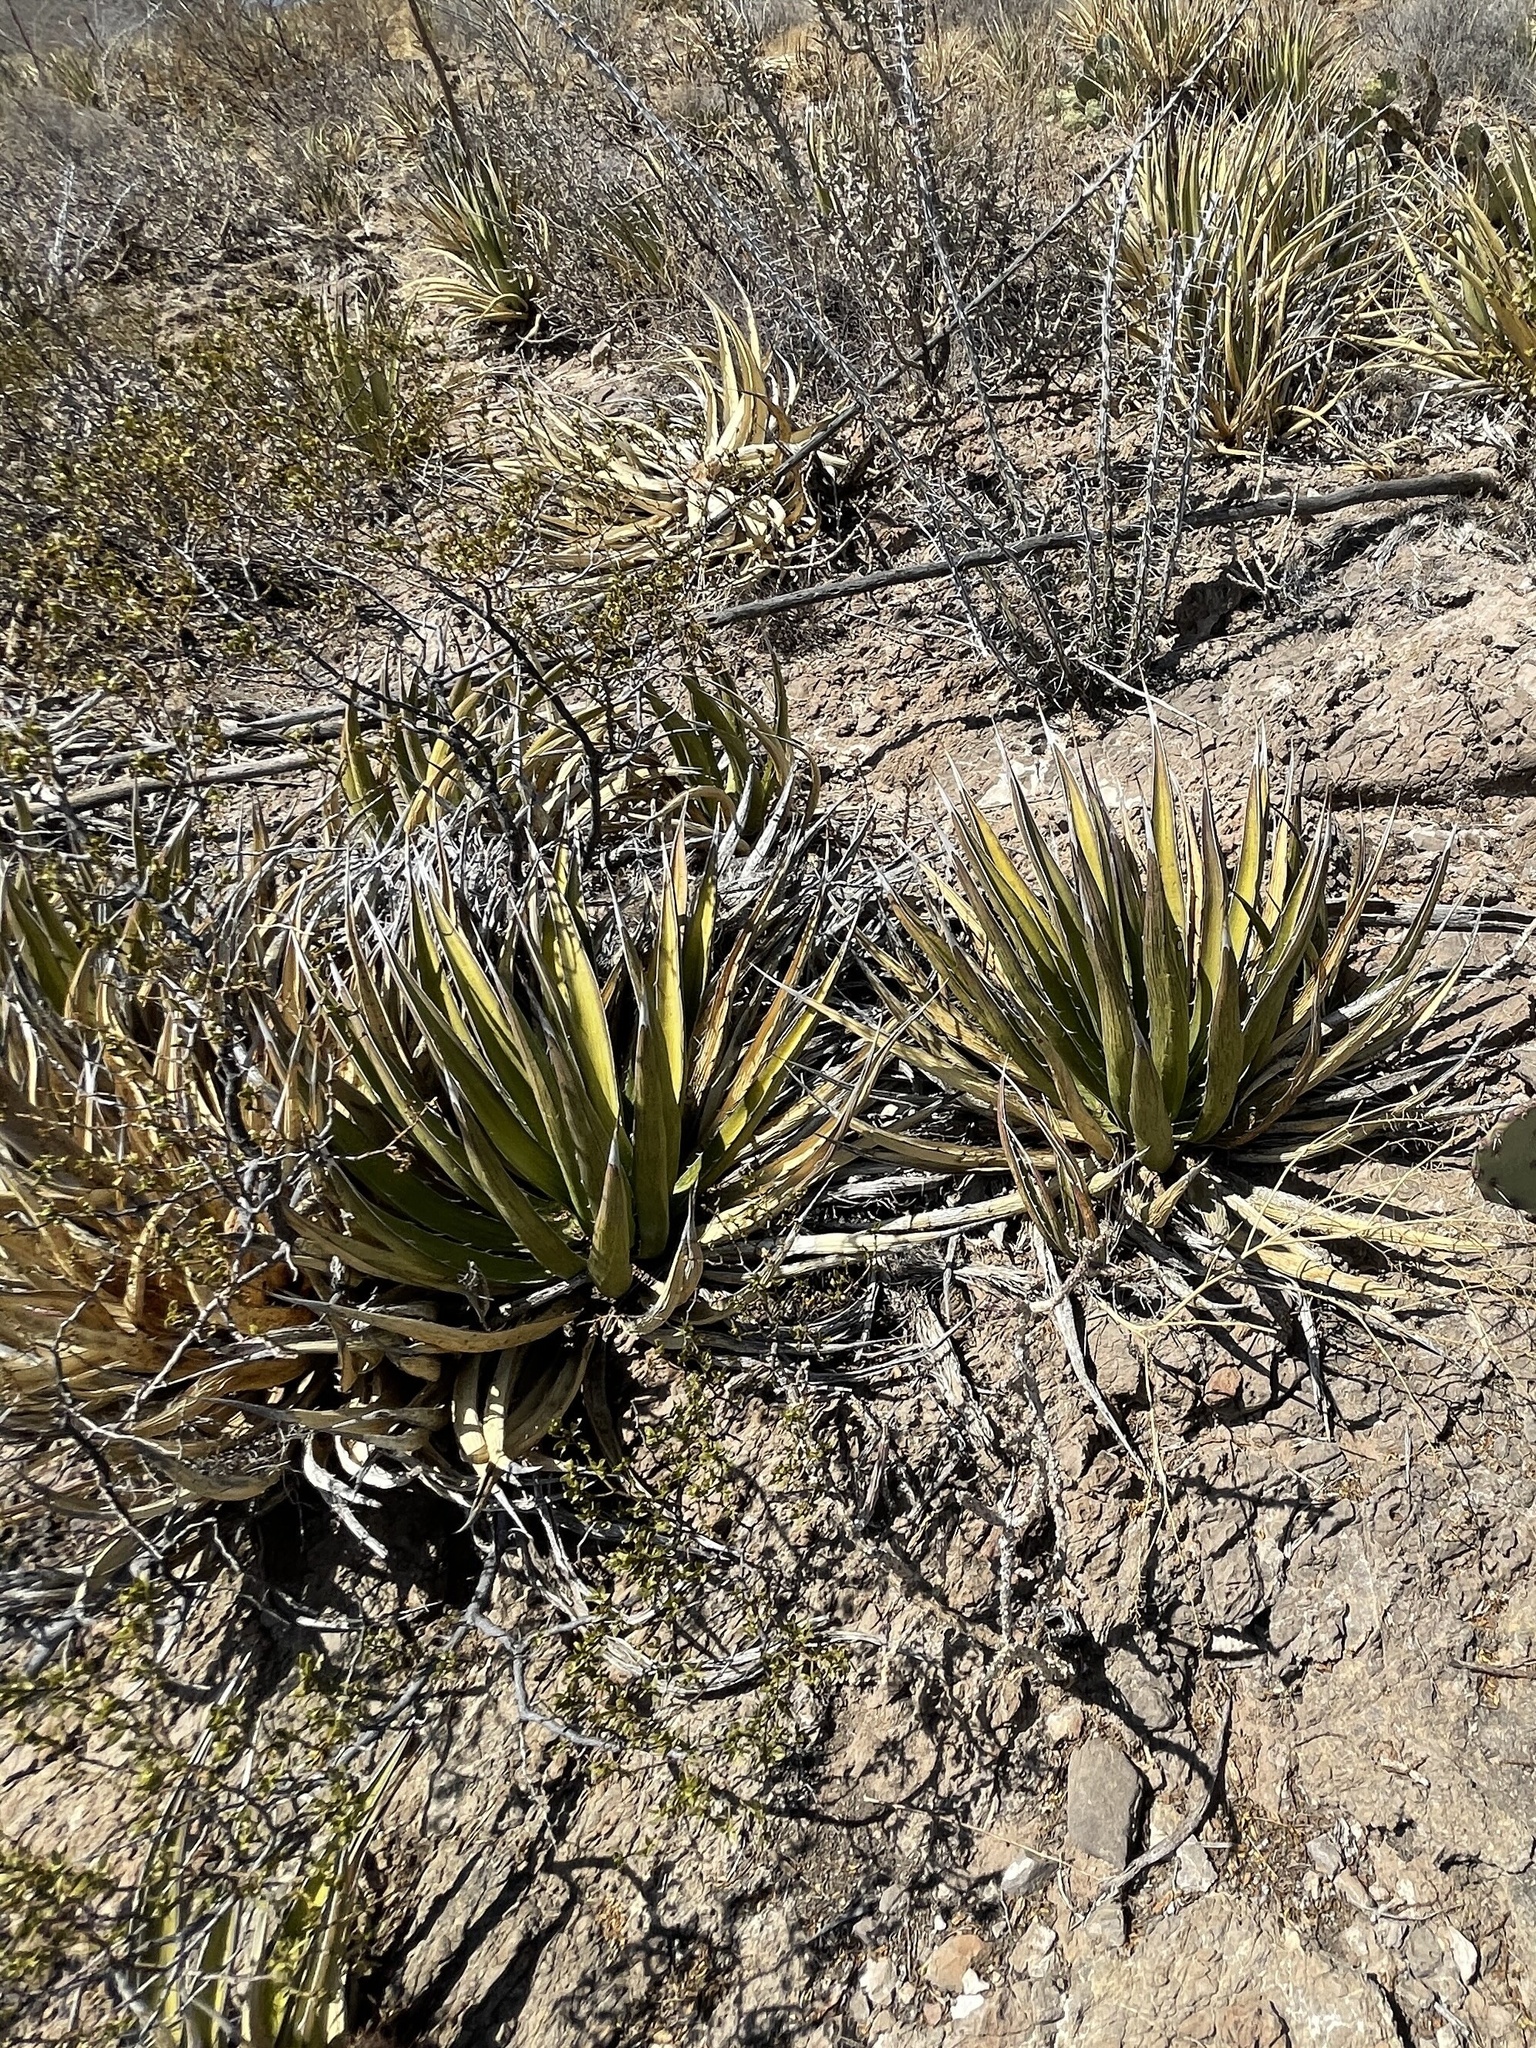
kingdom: Plantae
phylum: Tracheophyta
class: Liliopsida
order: Asparagales
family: Asparagaceae
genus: Agave
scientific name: Agave lechuguilla
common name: Lecheguilla agave
